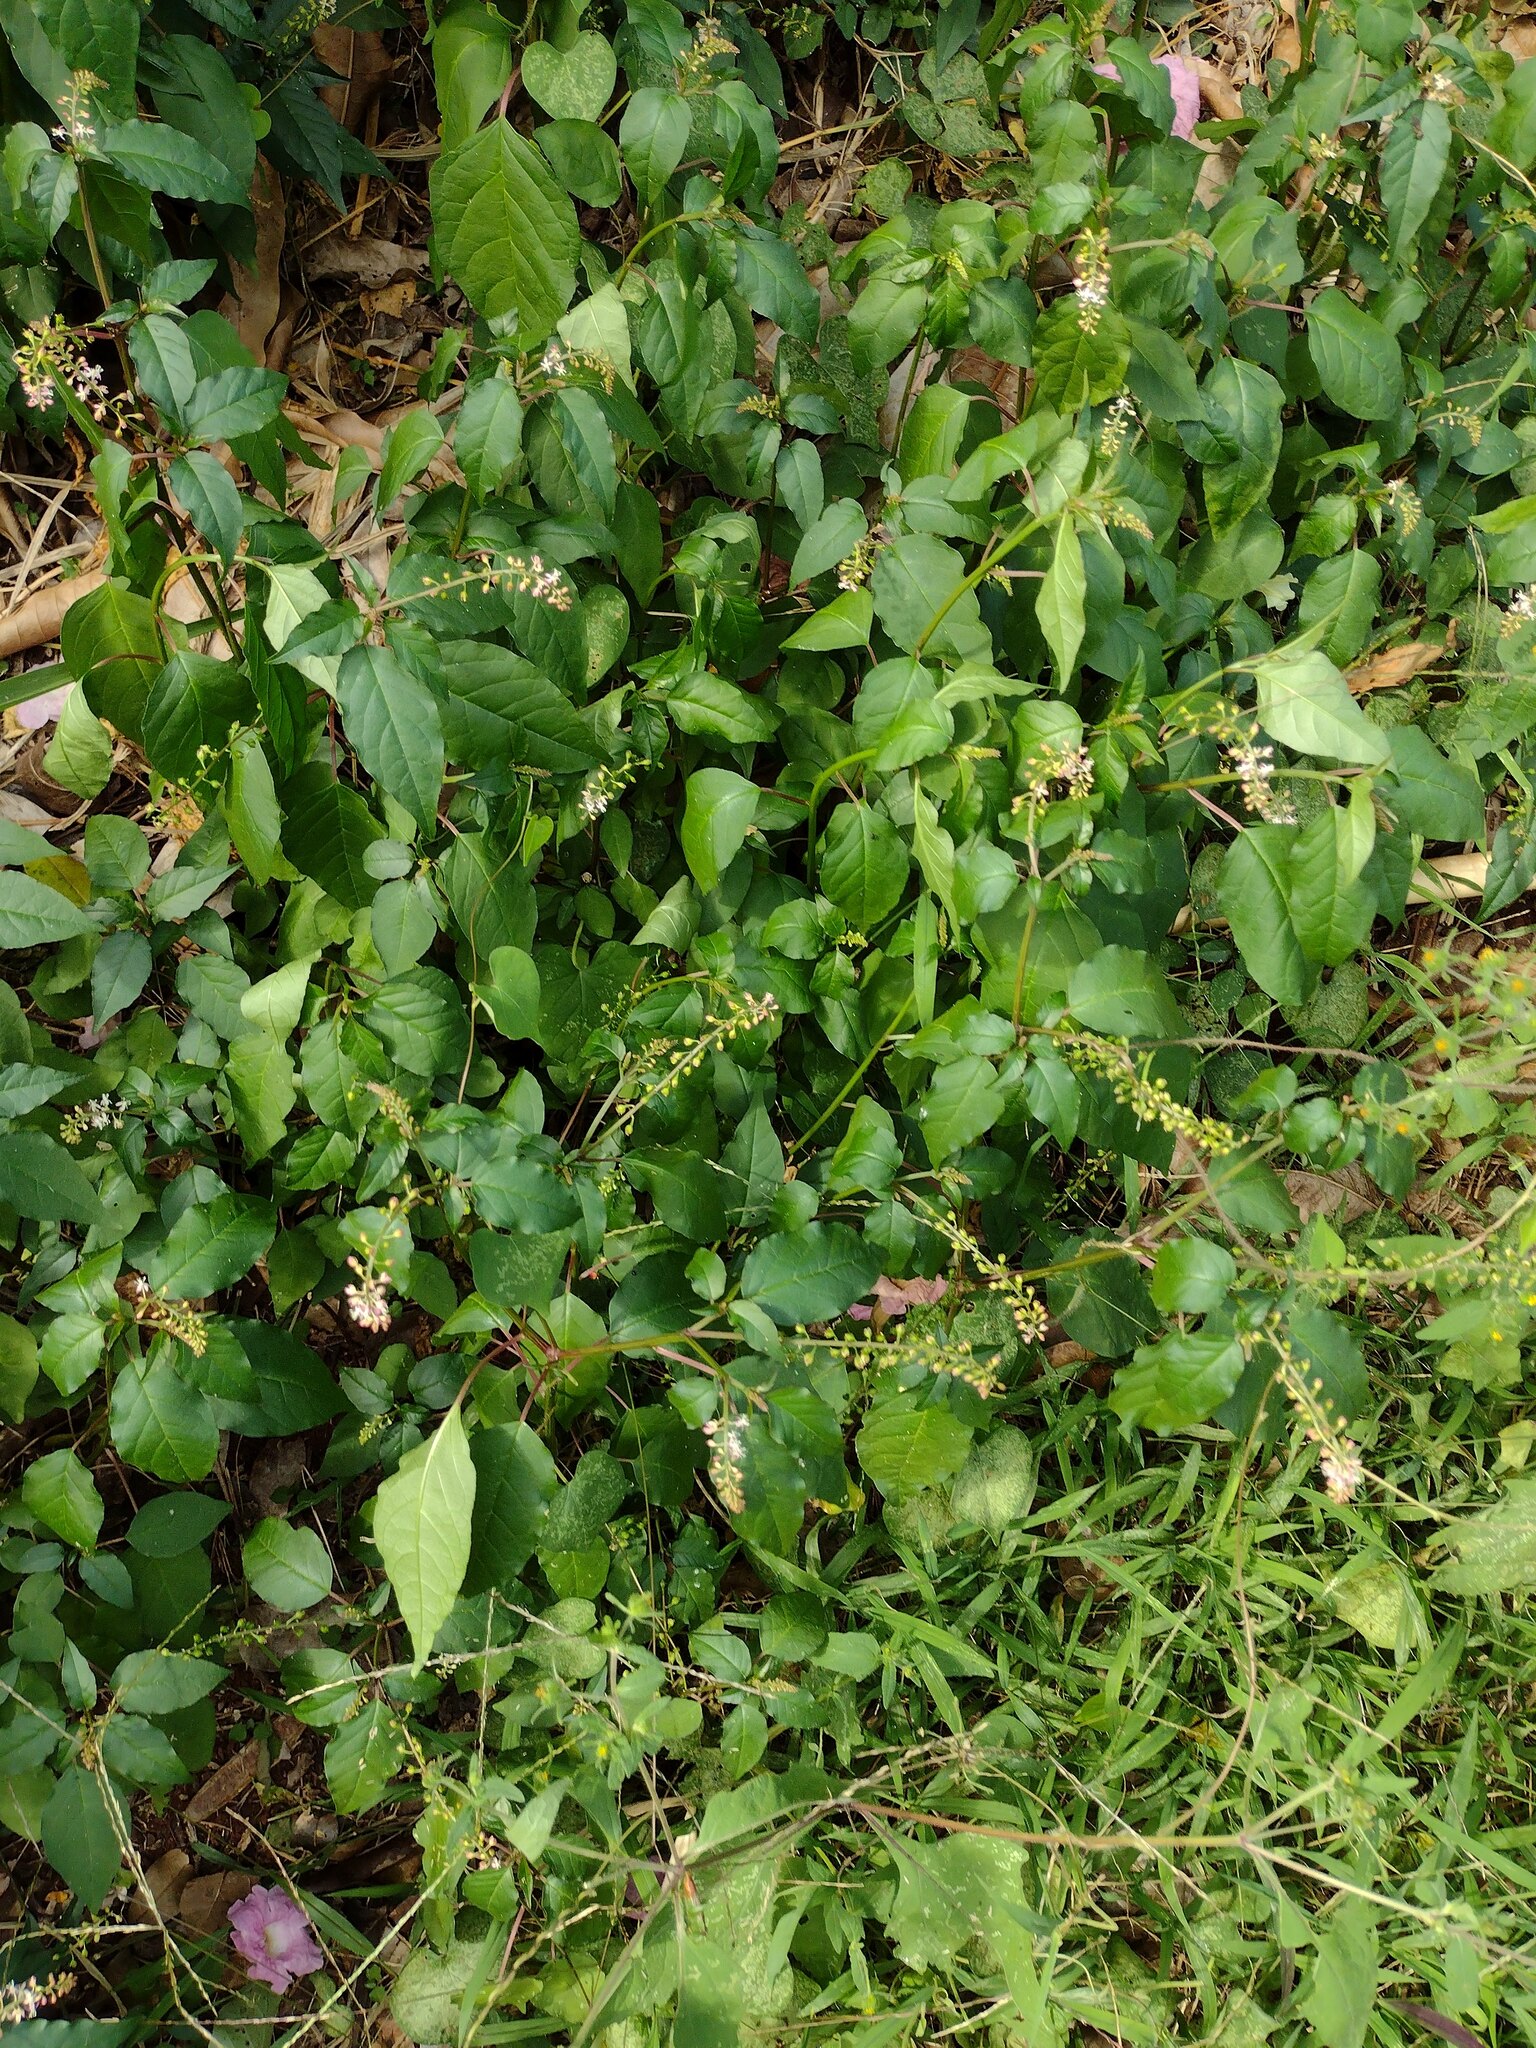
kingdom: Plantae
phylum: Tracheophyta
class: Magnoliopsida
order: Caryophyllales
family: Phytolaccaceae
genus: Rivina
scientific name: Rivina humilis
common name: Rougeplant
